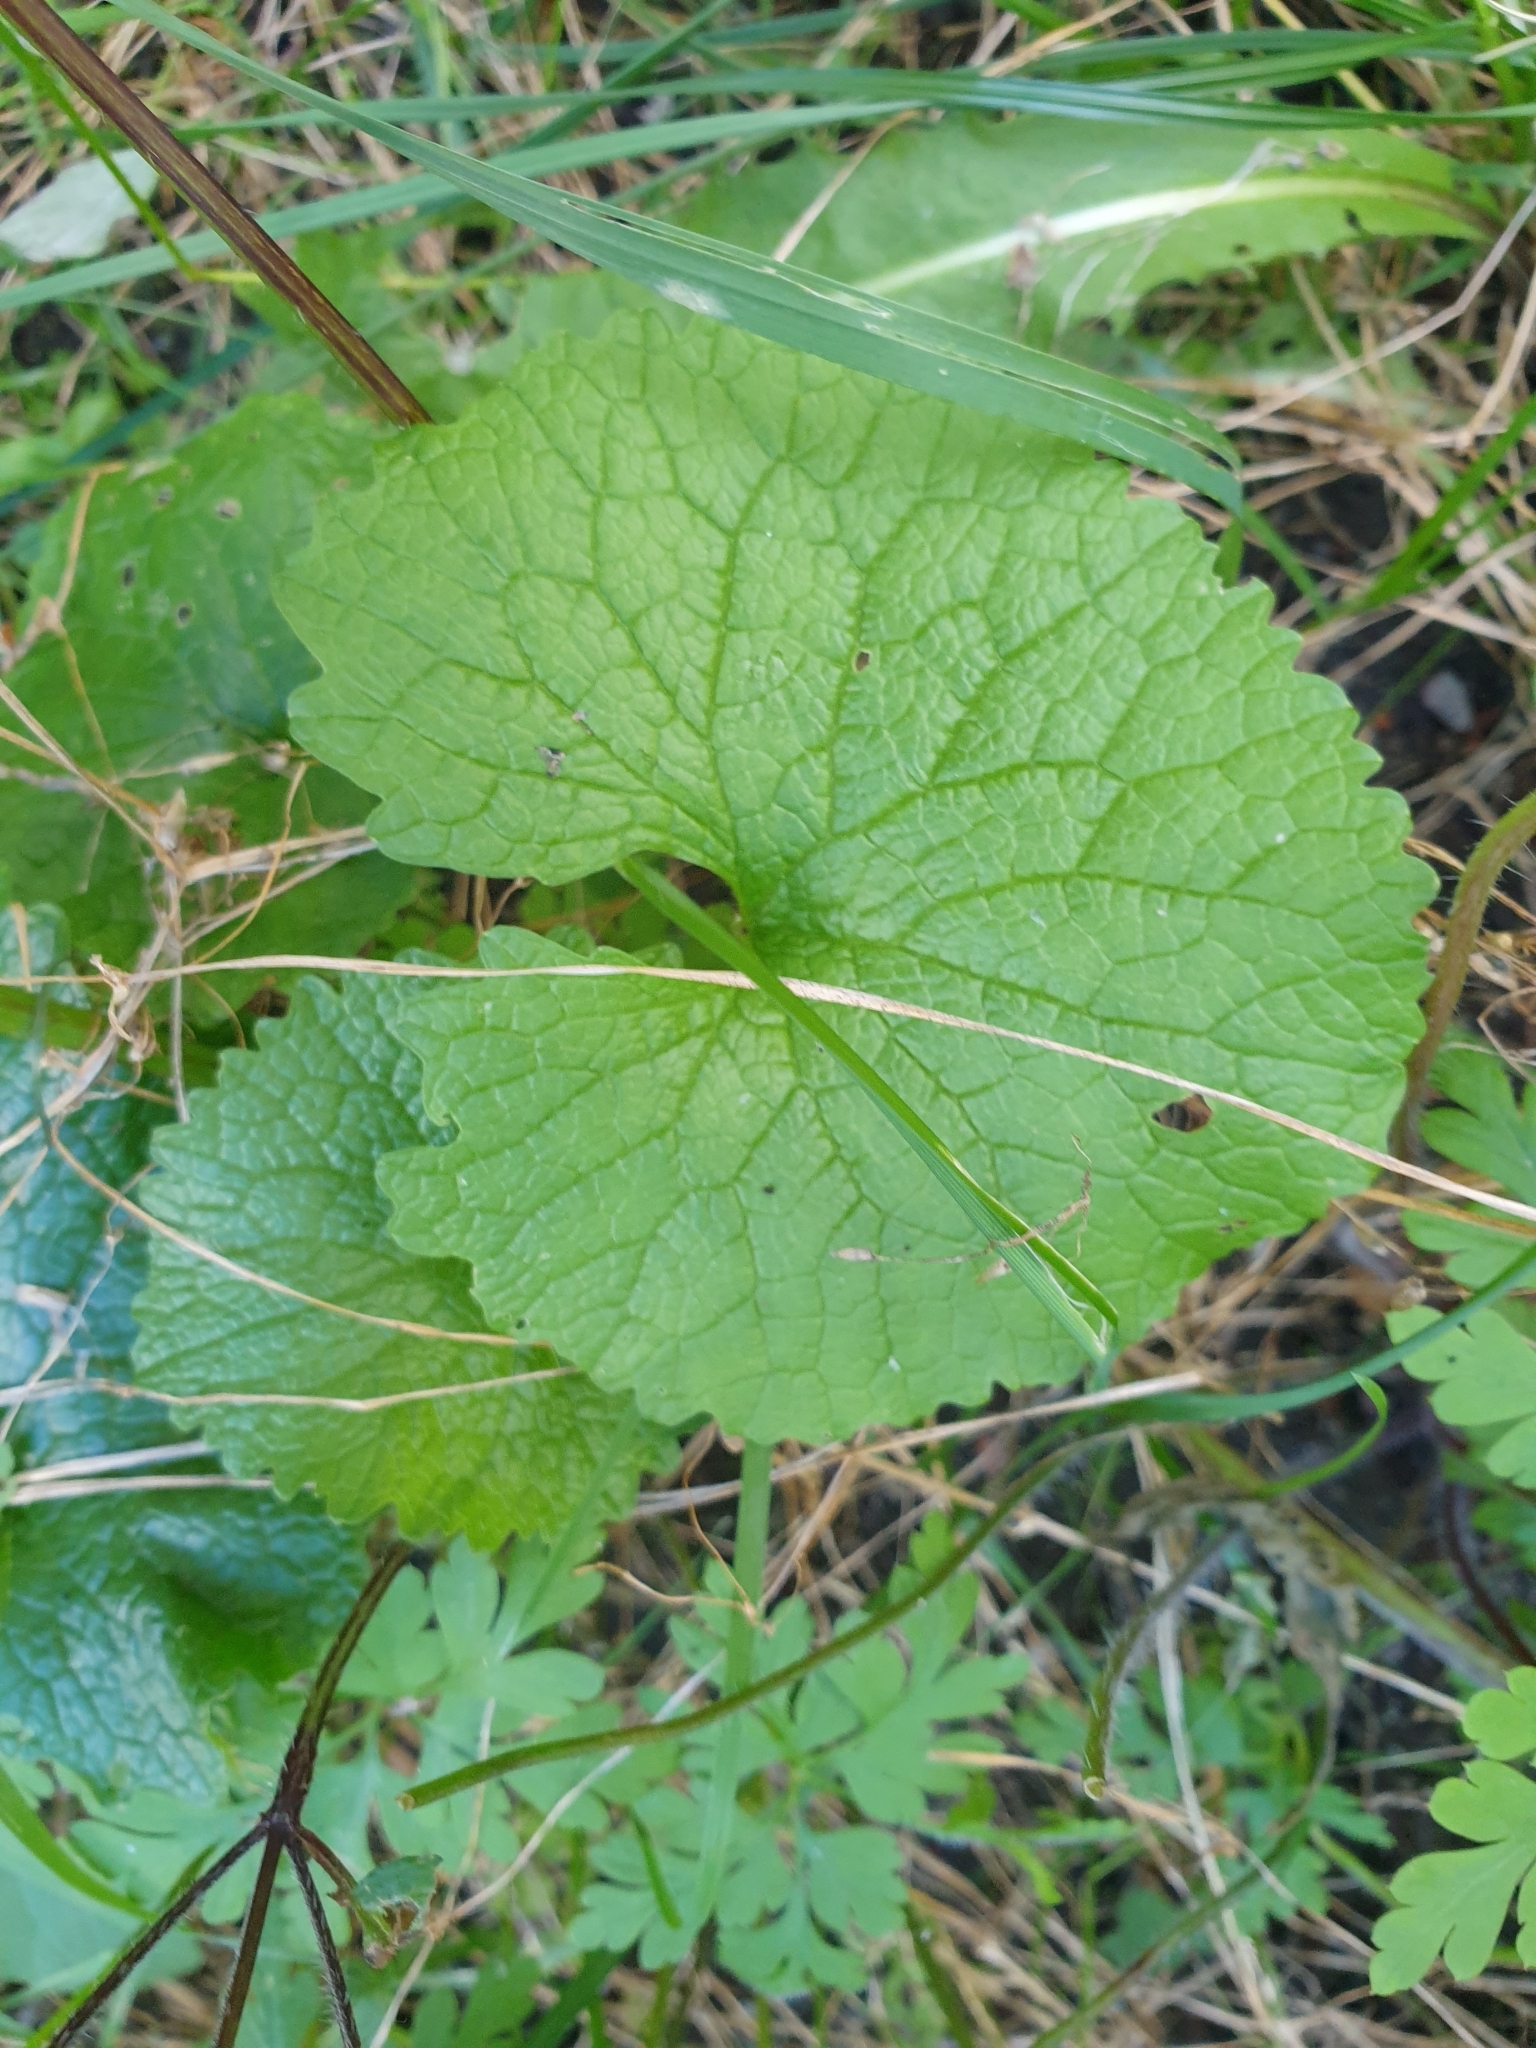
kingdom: Plantae
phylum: Tracheophyta
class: Magnoliopsida
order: Brassicales
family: Brassicaceae
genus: Alliaria
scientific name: Alliaria petiolata
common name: Garlic mustard
